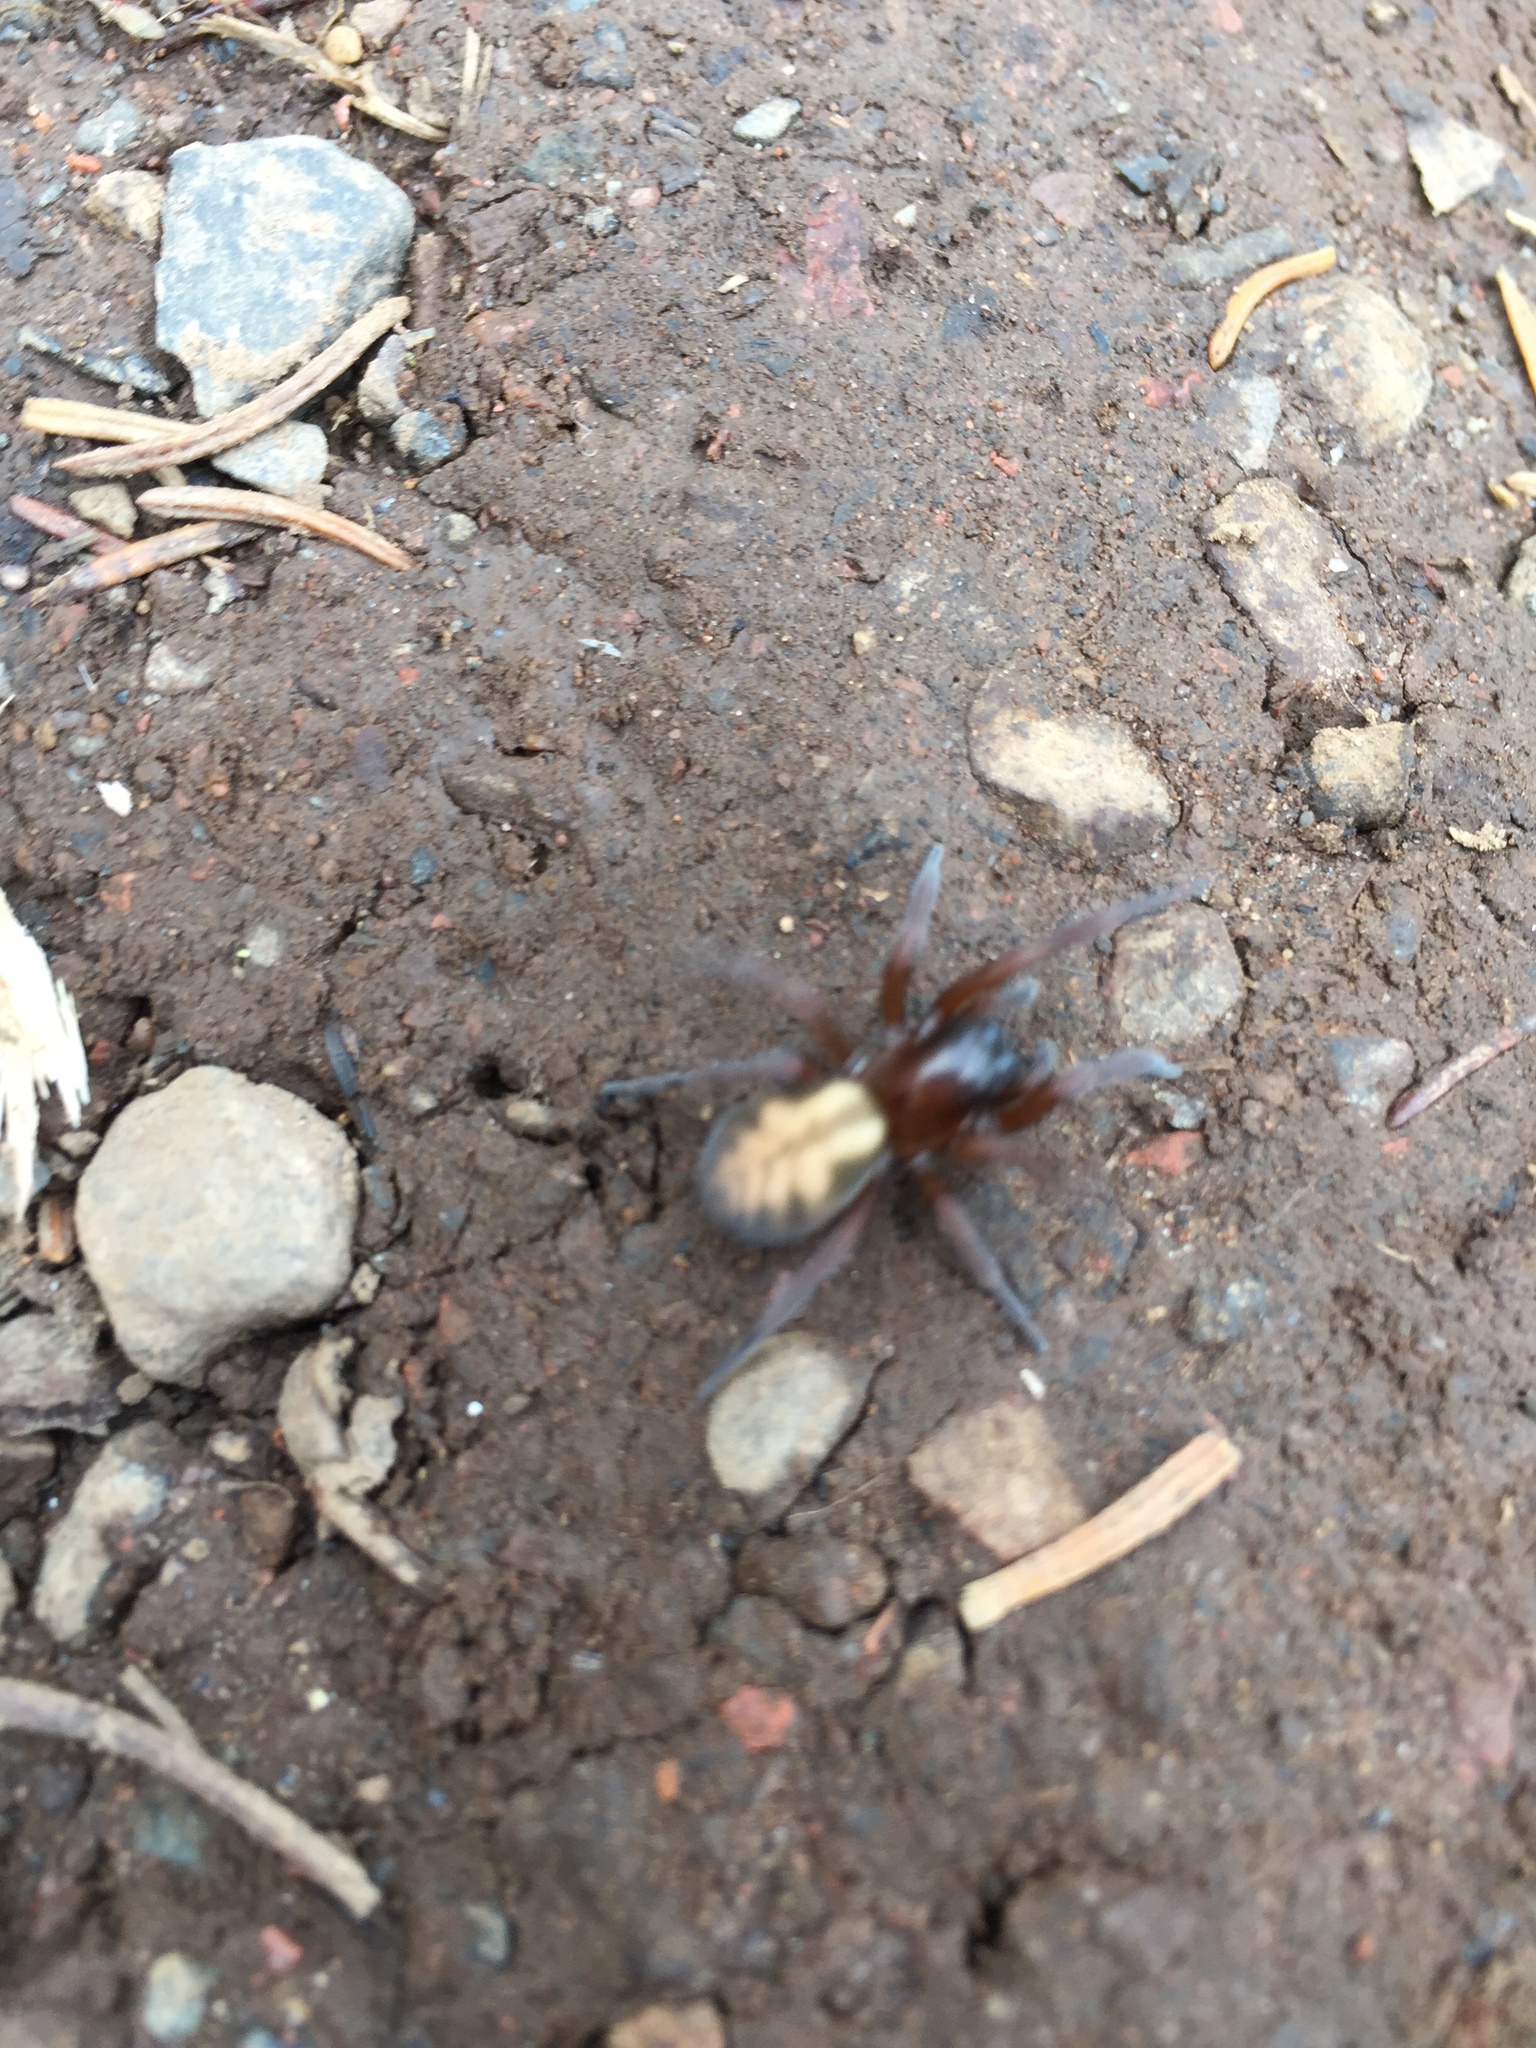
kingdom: Animalia
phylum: Arthropoda
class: Arachnida
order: Araneae
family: Amaurobiidae
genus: Callobius
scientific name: Callobius bennetti
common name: Bennett's laceweaver
